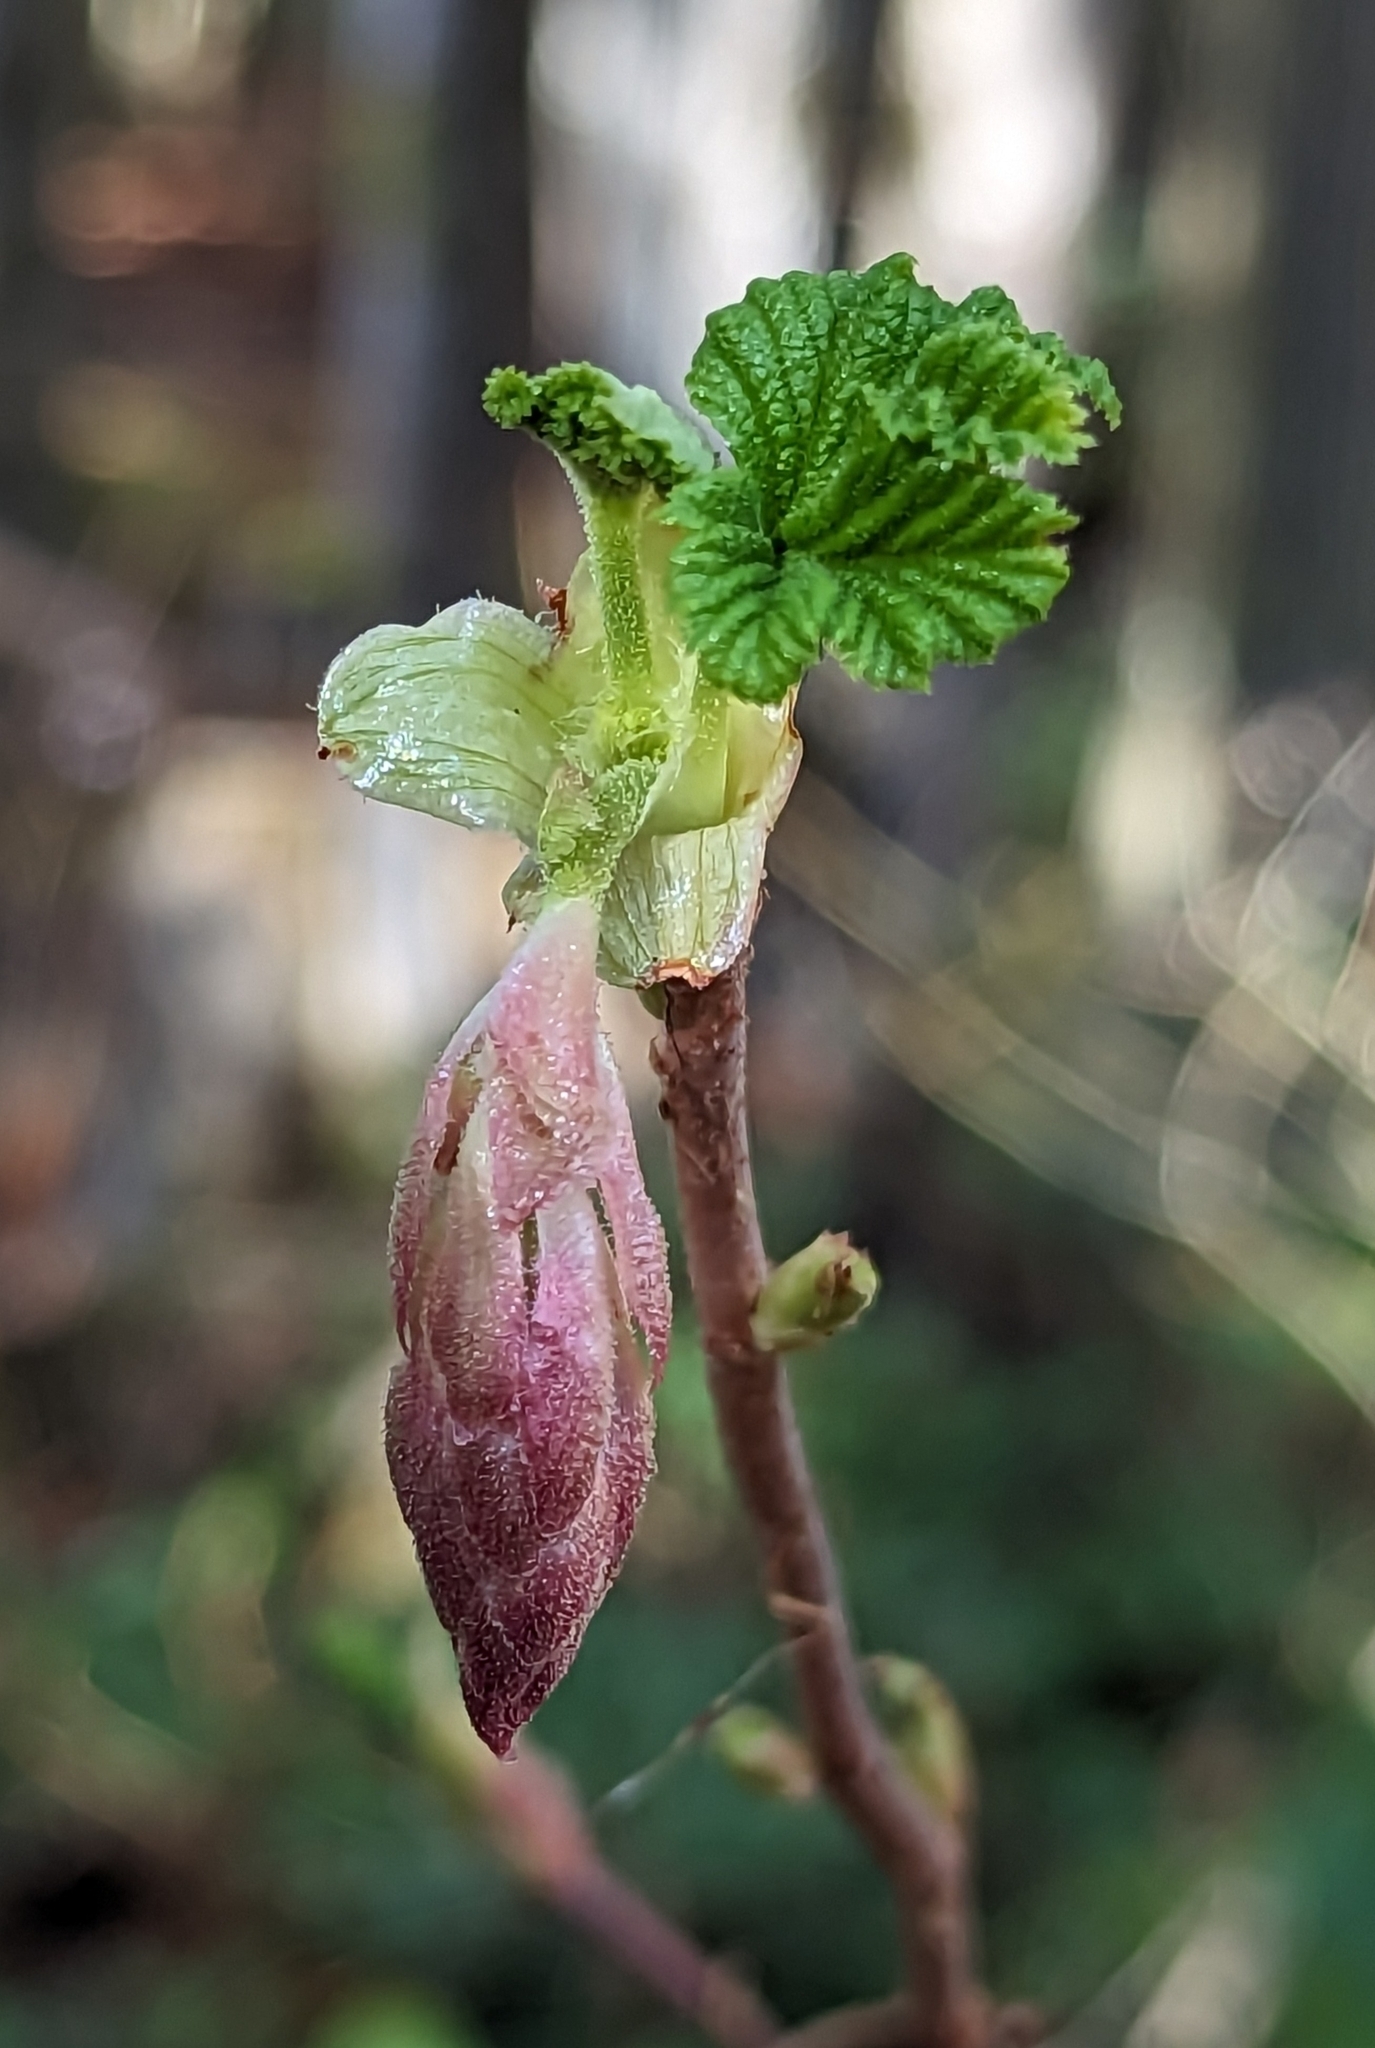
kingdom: Plantae
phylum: Tracheophyta
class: Magnoliopsida
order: Saxifragales
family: Grossulariaceae
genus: Ribes
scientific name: Ribes sanguineum
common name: Flowering currant
